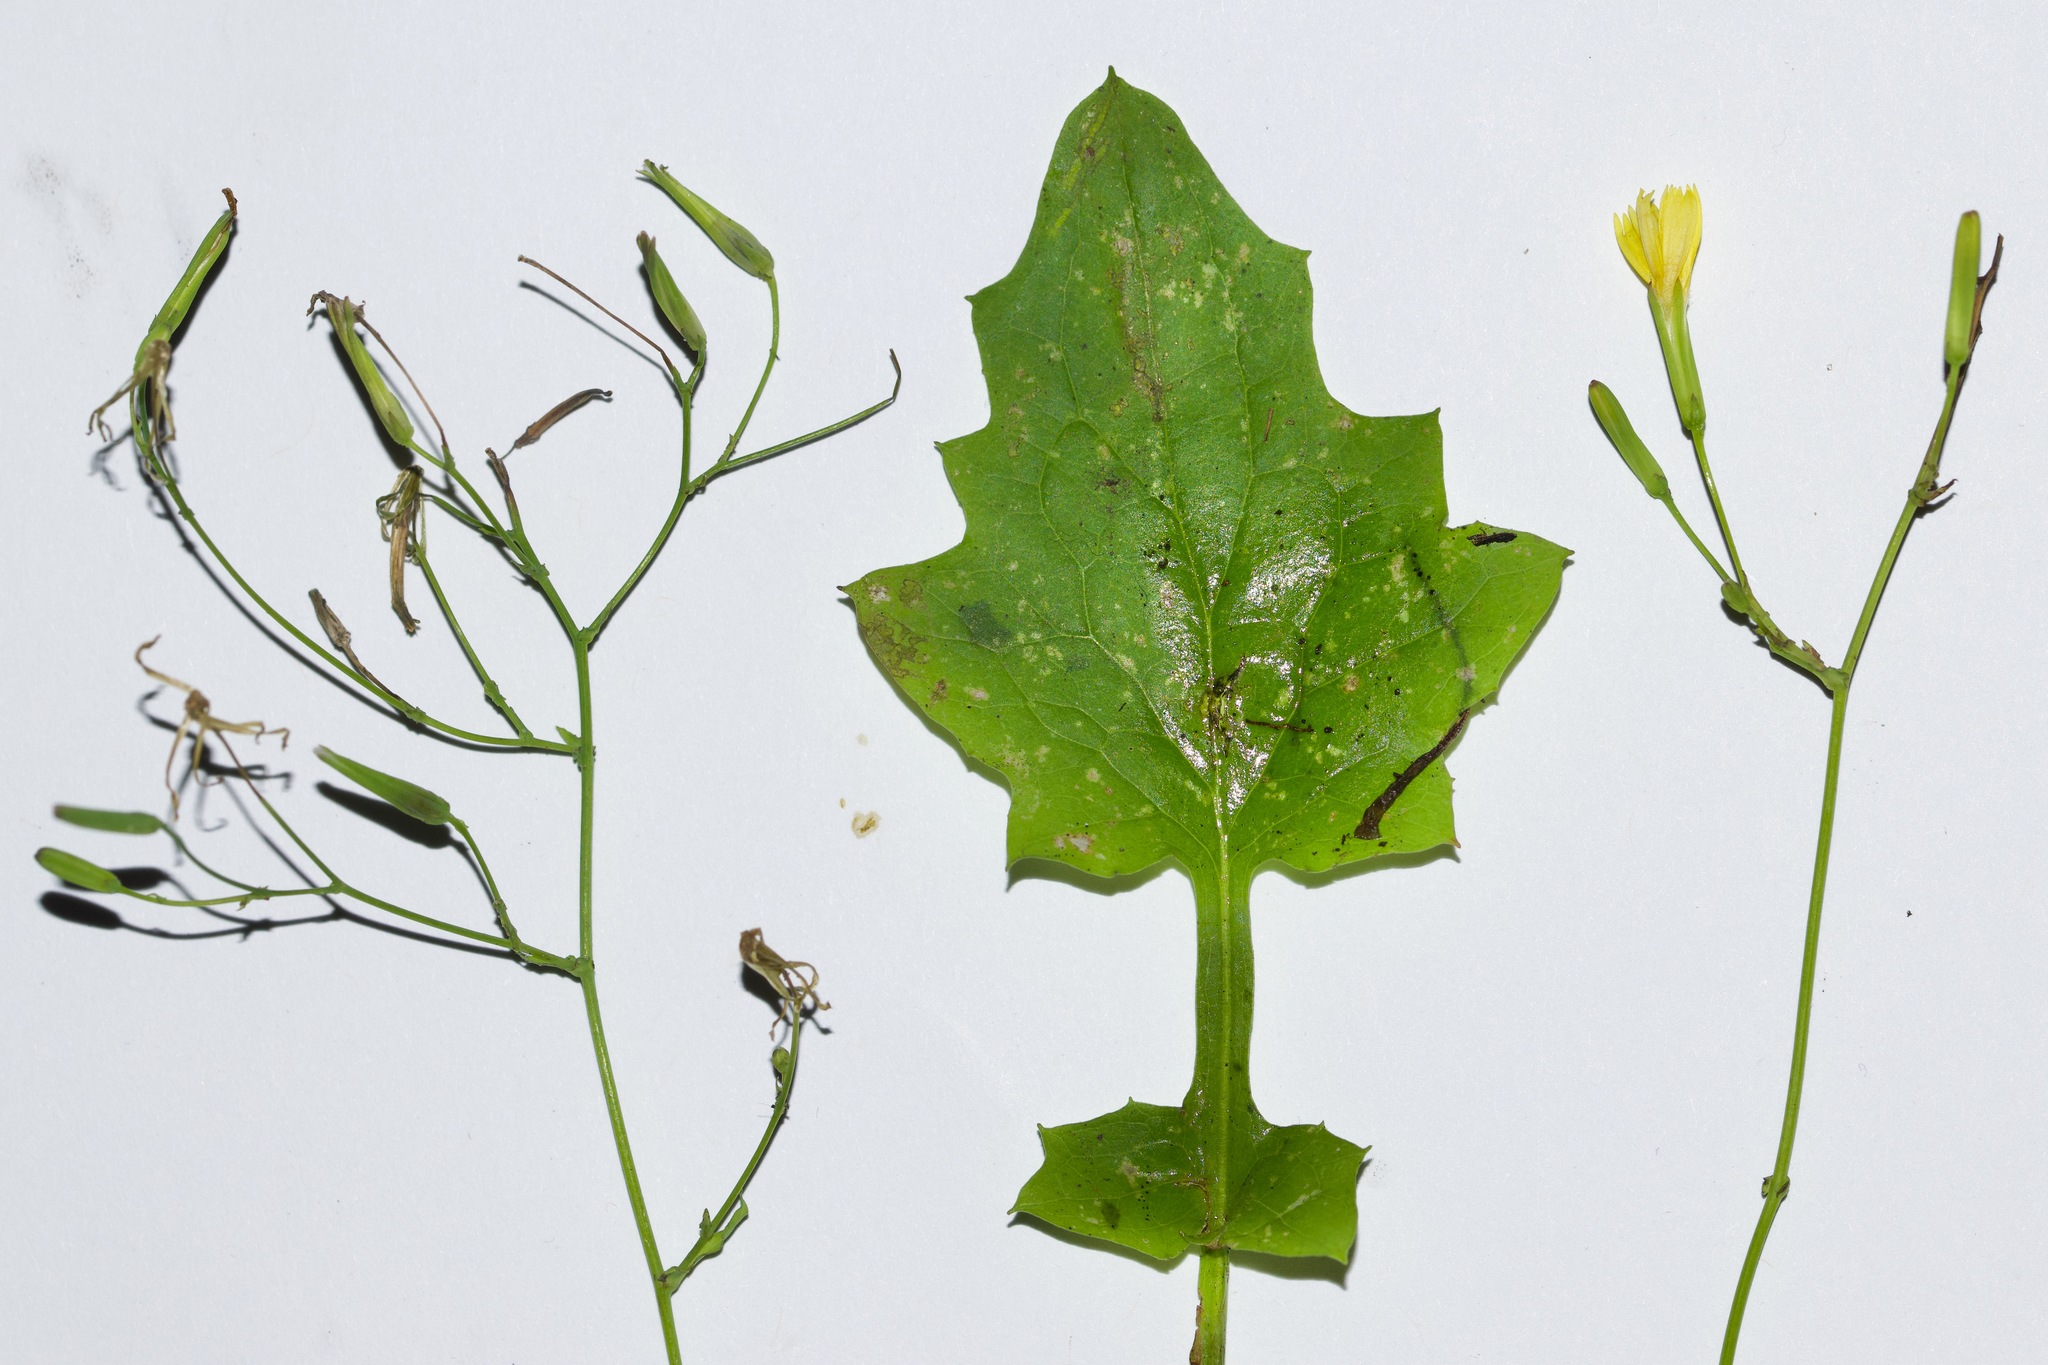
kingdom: Plantae
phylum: Tracheophyta
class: Magnoliopsida
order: Asterales
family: Asteraceae
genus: Mycelis
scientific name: Mycelis muralis
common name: Wall lettuce
